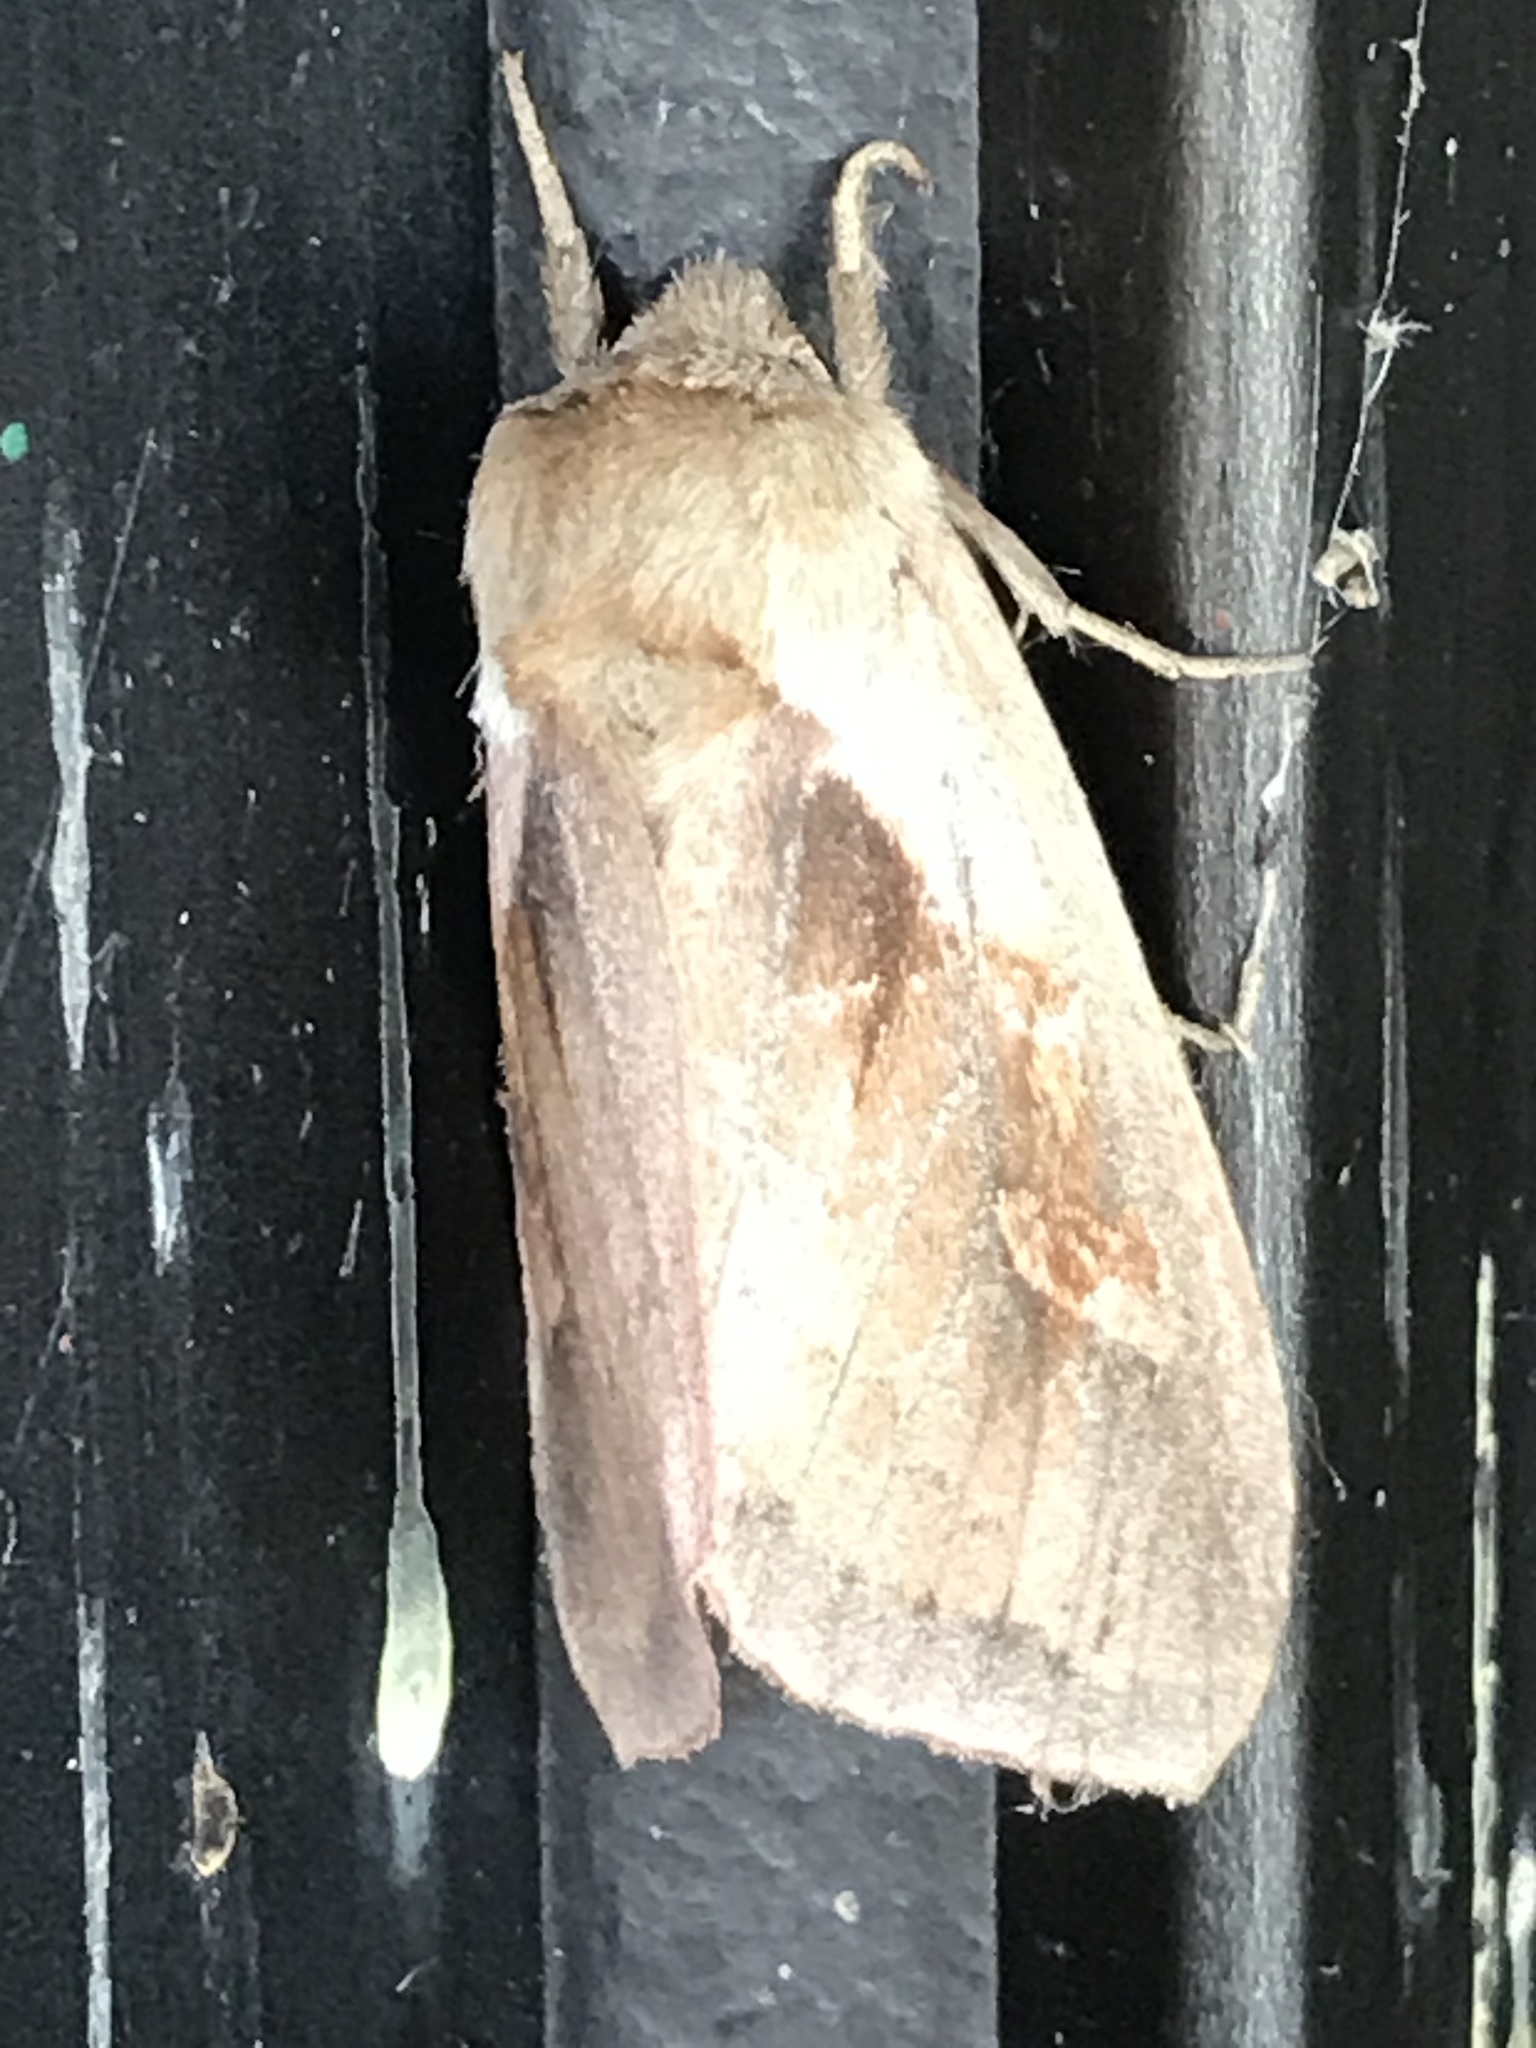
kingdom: Animalia
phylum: Arthropoda
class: Insecta
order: Lepidoptera
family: Noctuidae
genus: Bellura
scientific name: Bellura obliqua
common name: Cattail borer moth
